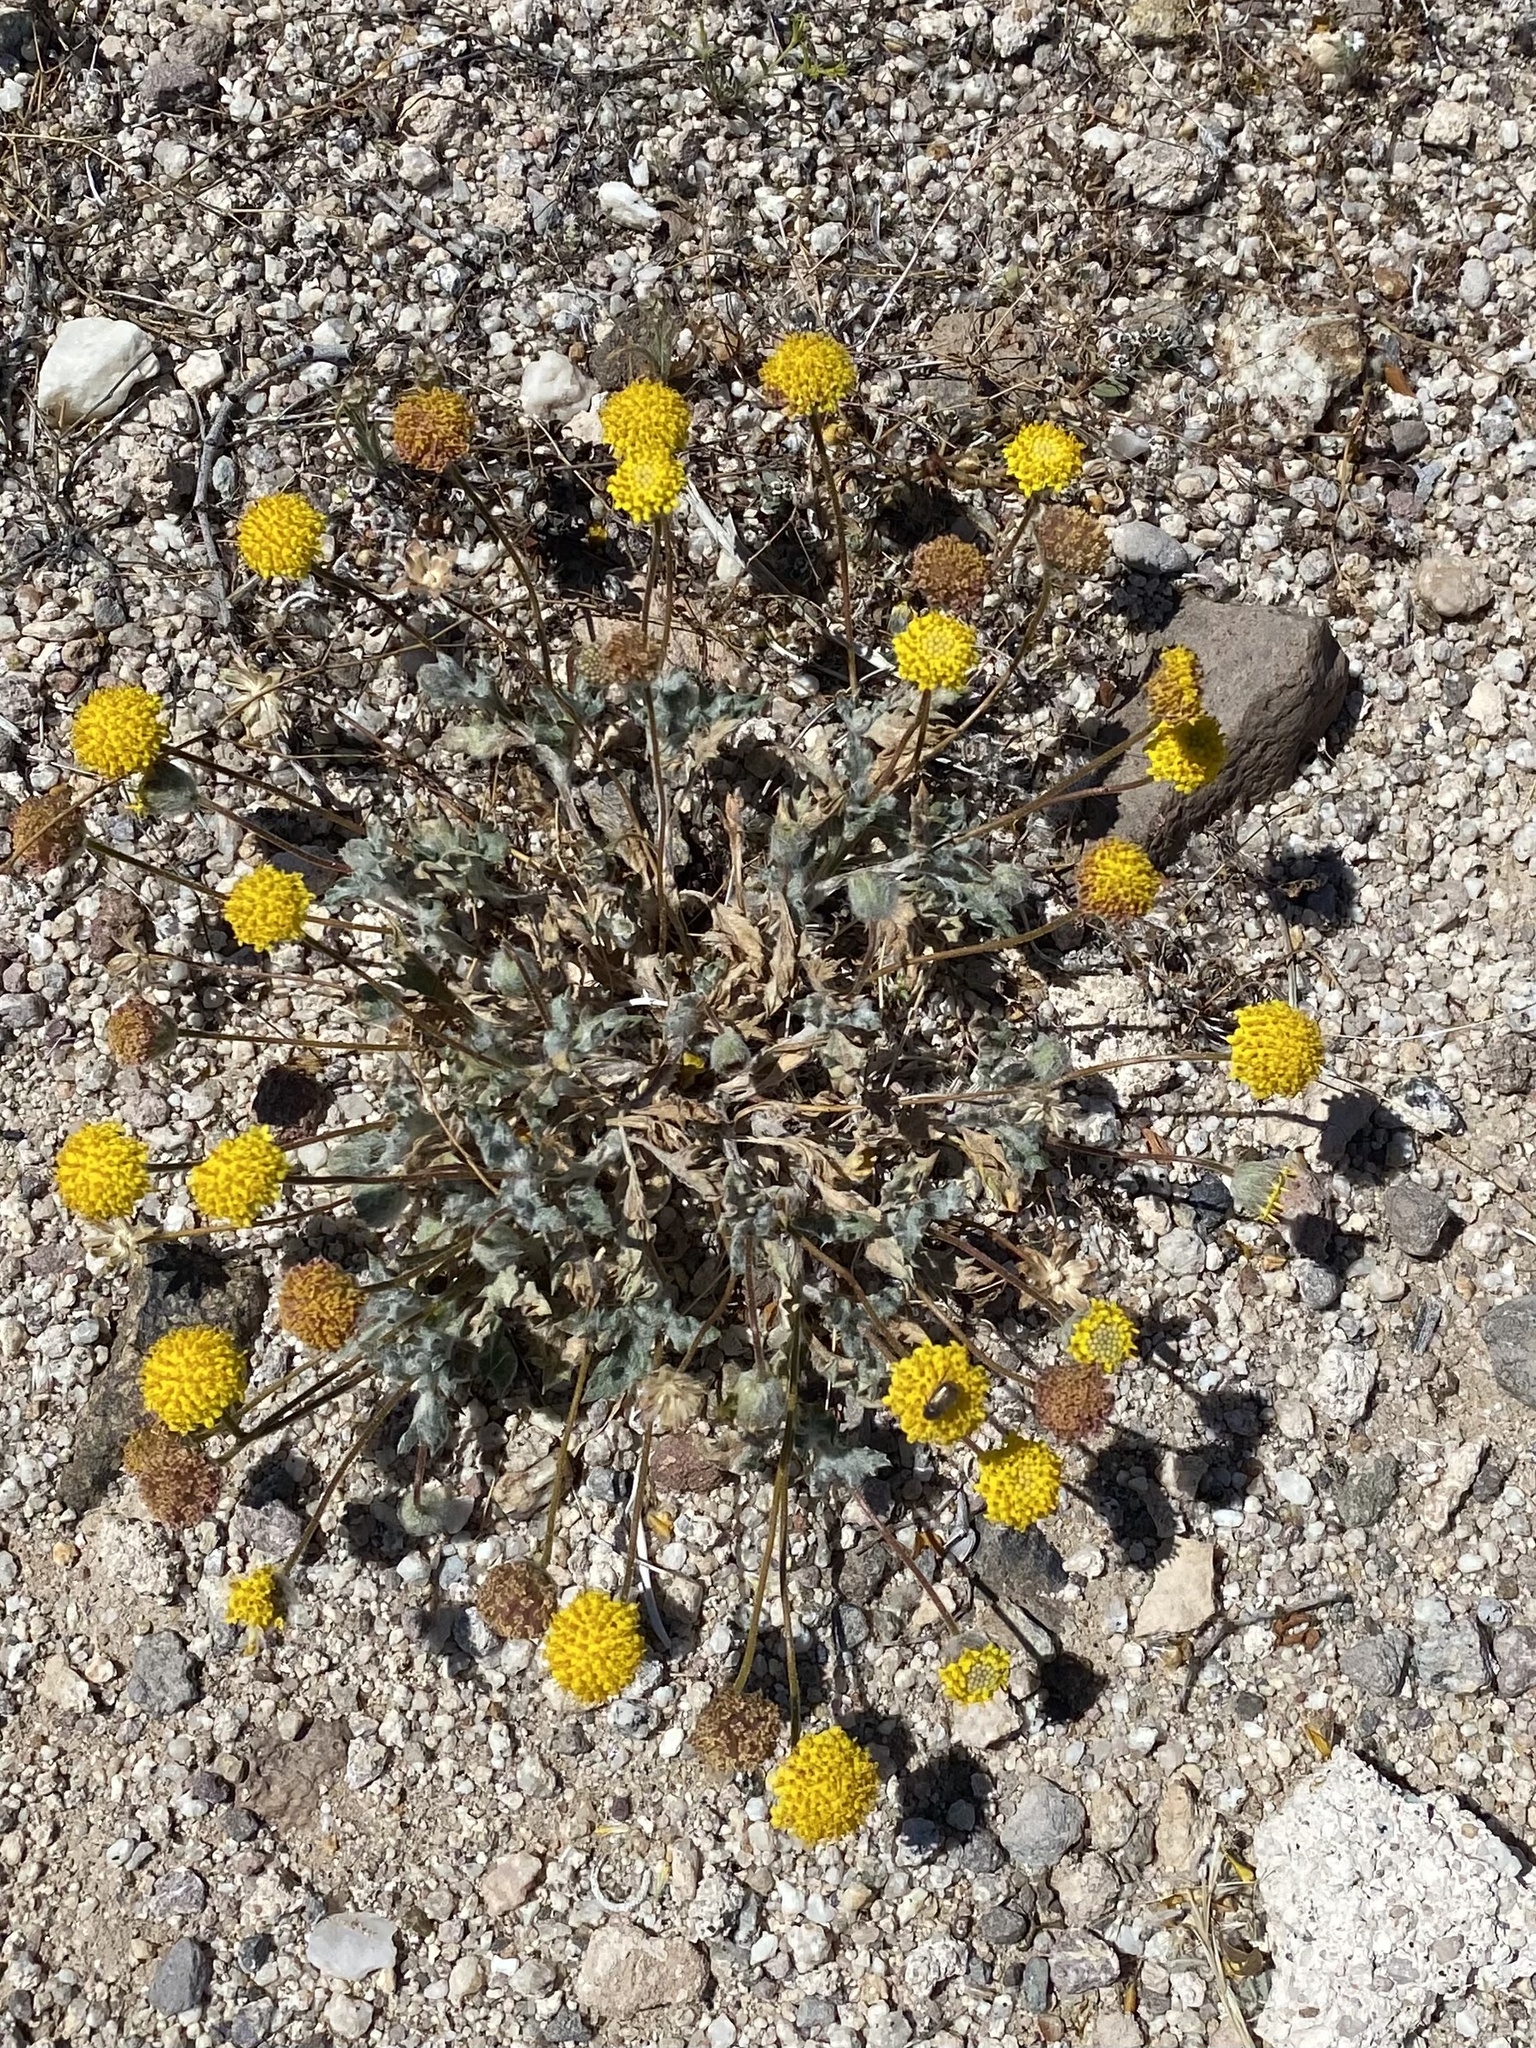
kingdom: Plantae
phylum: Tracheophyta
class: Magnoliopsida
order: Asterales
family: Asteraceae
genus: Trichoptilium
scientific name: Trichoptilium incisum
